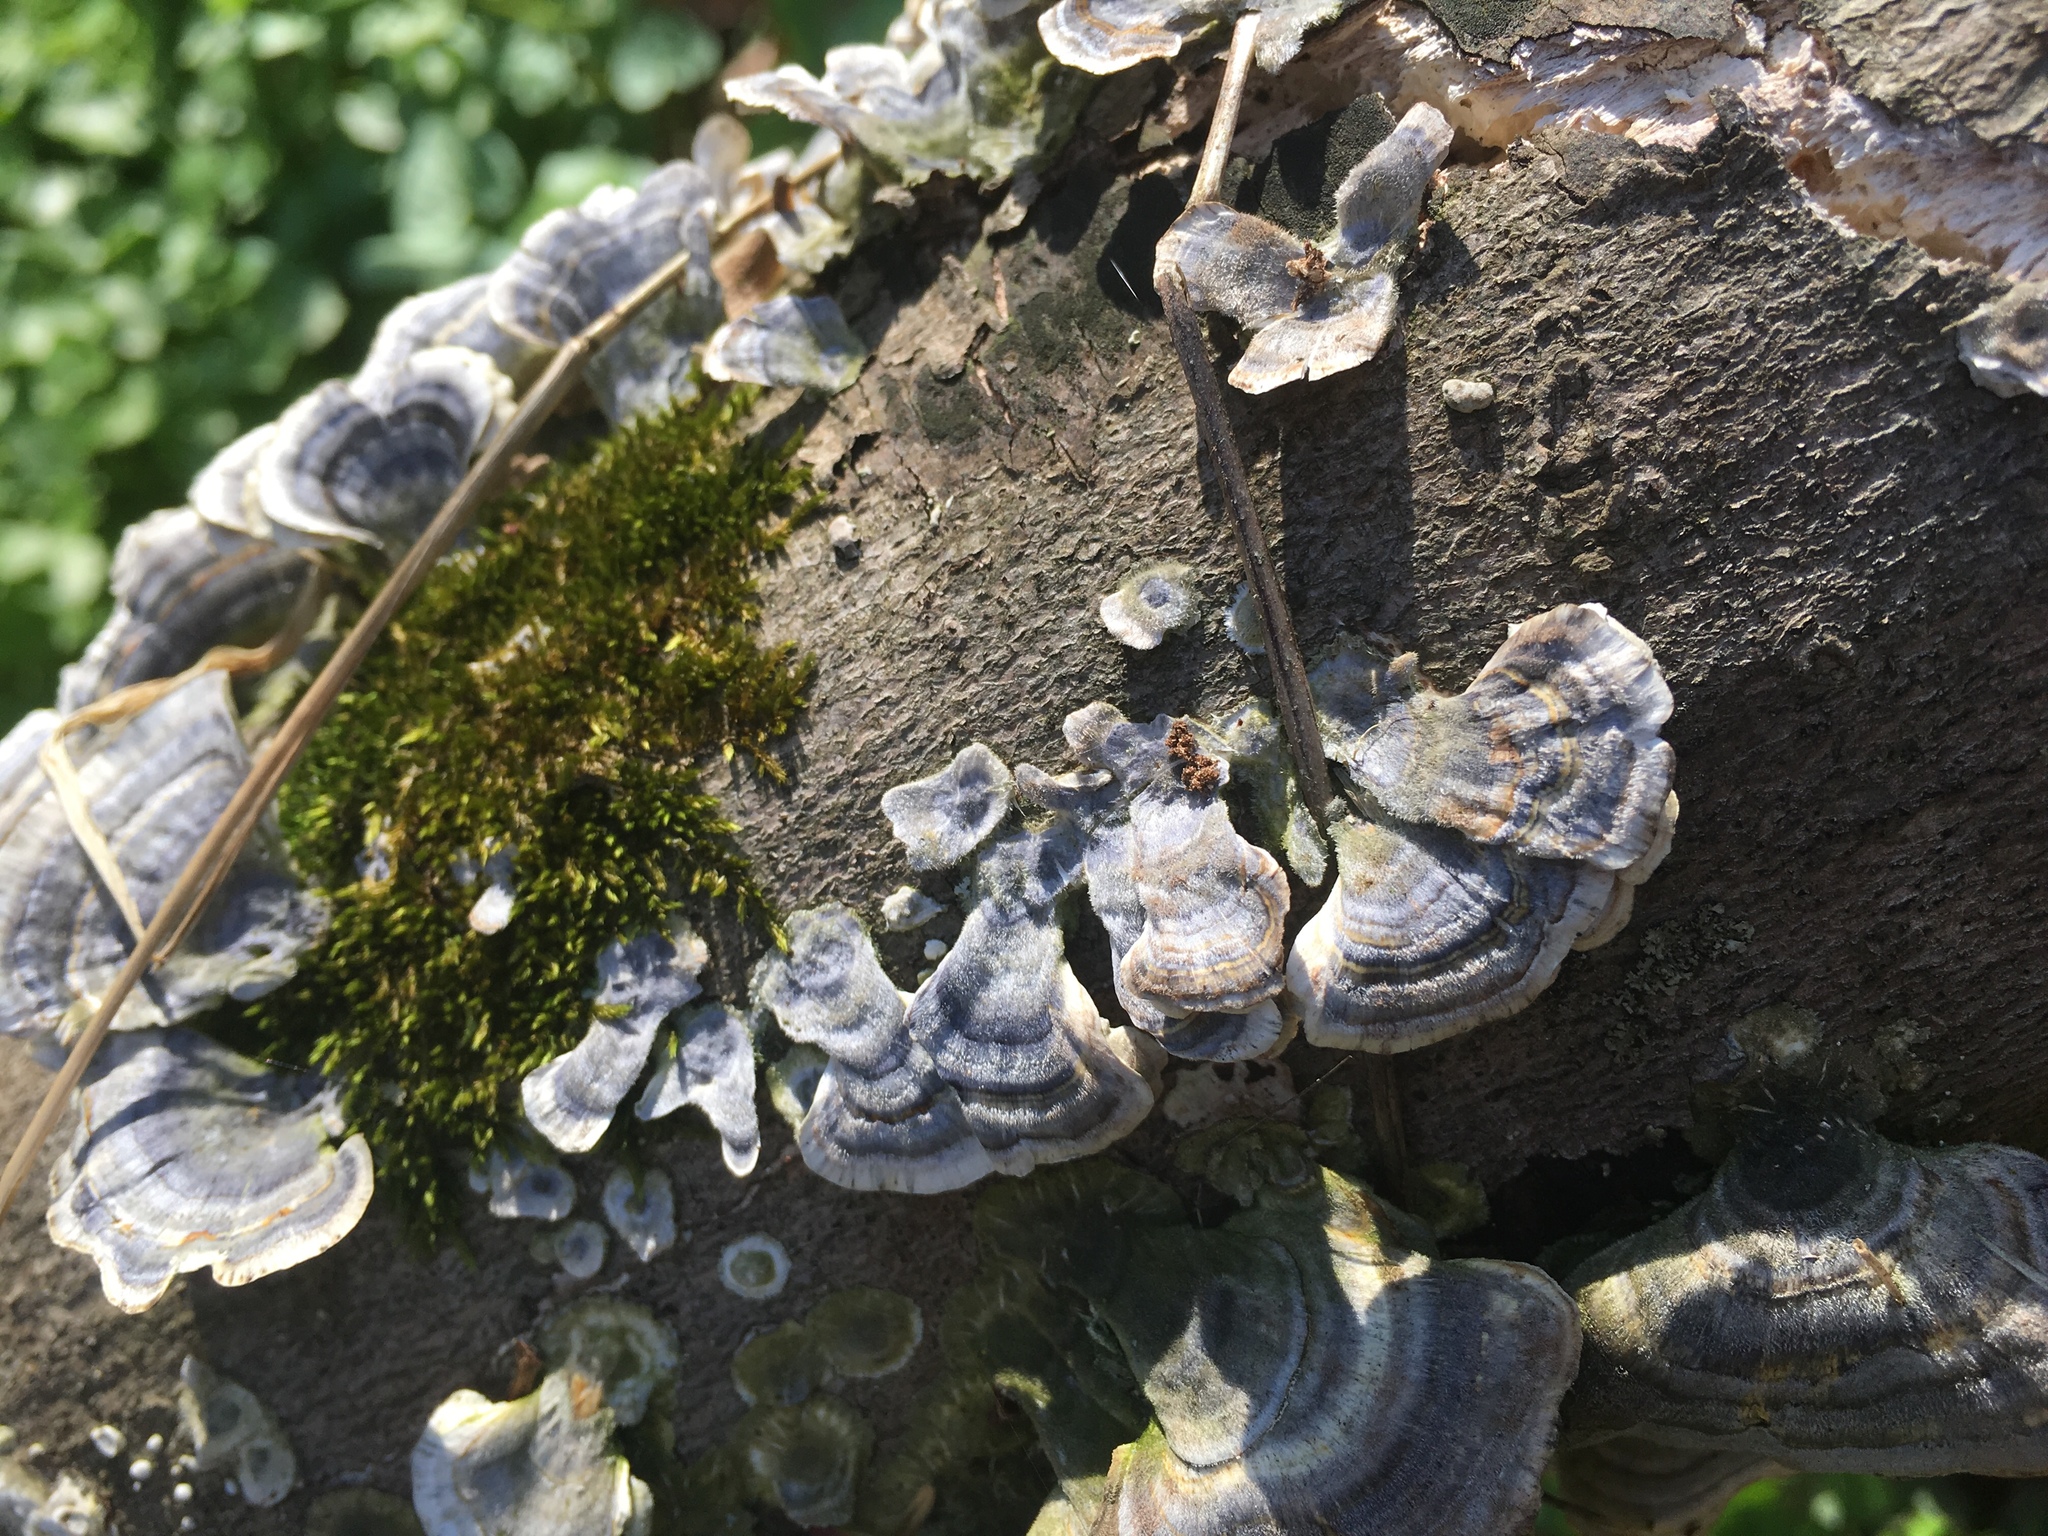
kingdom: Fungi
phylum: Basidiomycota
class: Agaricomycetes
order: Polyporales
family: Polyporaceae
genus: Trametes
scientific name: Trametes versicolor
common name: Turkeytail
